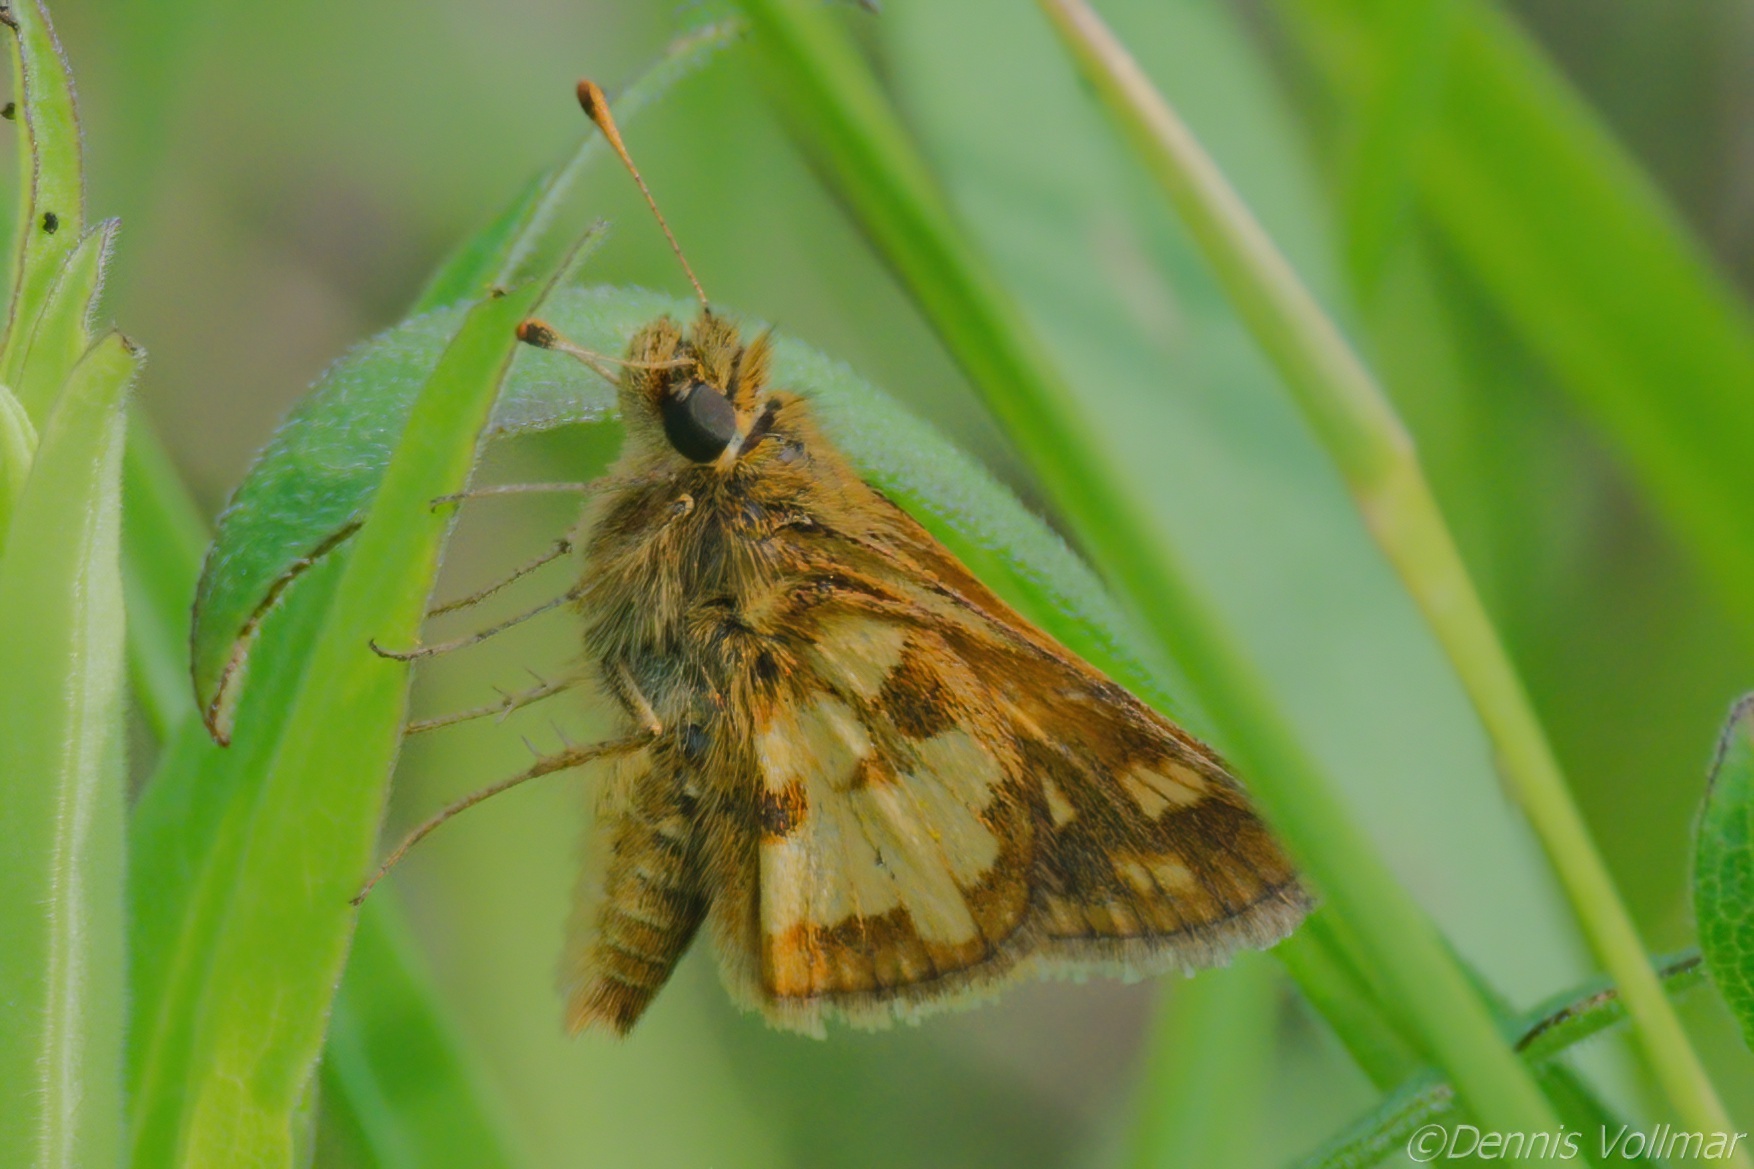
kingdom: Animalia
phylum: Arthropoda
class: Insecta
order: Lepidoptera
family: Hesperiidae
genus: Polites
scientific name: Polites coras
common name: Peck's skipper
